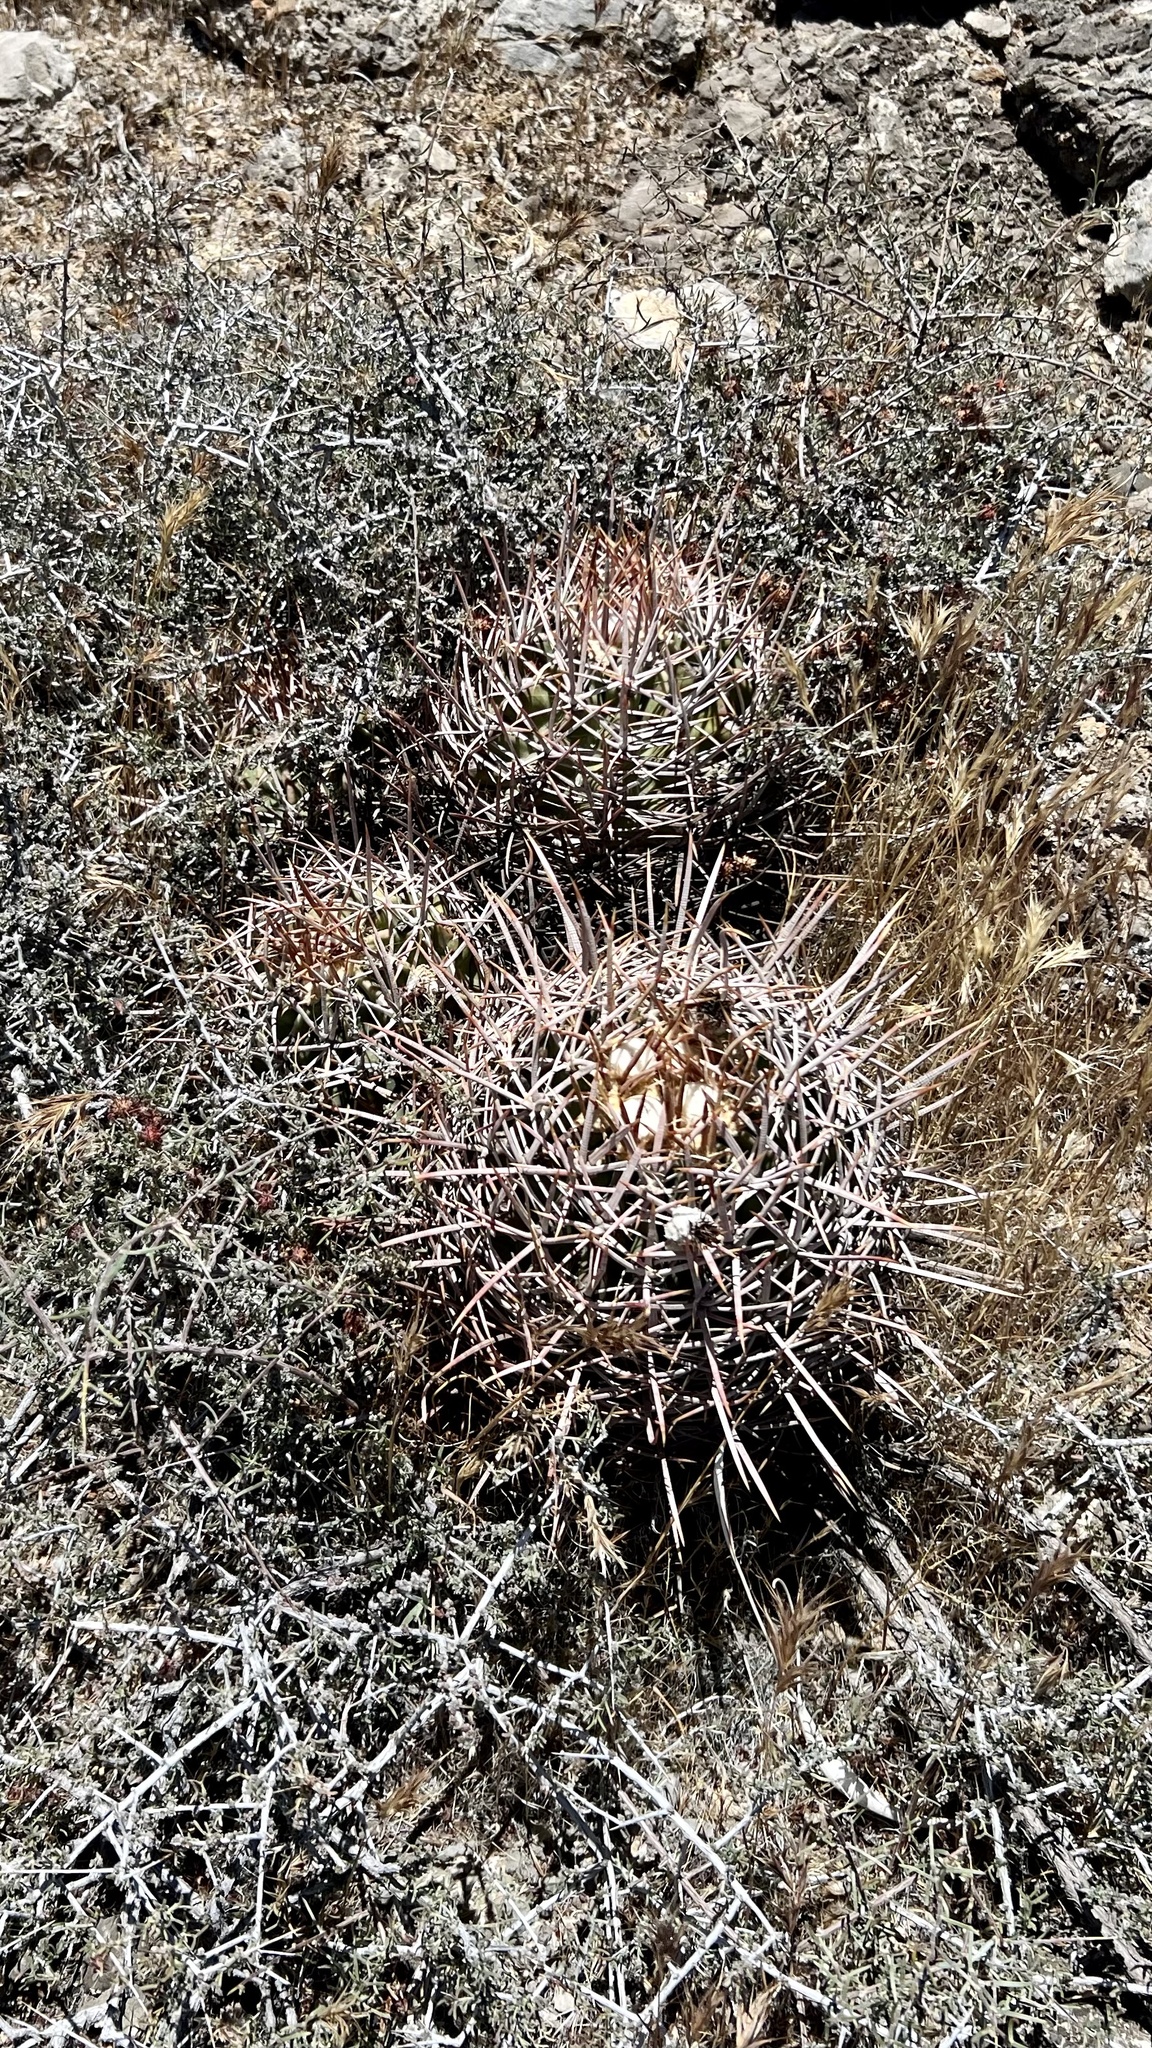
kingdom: Plantae
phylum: Tracheophyta
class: Magnoliopsida
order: Caryophyllales
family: Cactaceae
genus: Echinocactus
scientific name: Echinocactus polycephalus
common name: Cottontop cactus
